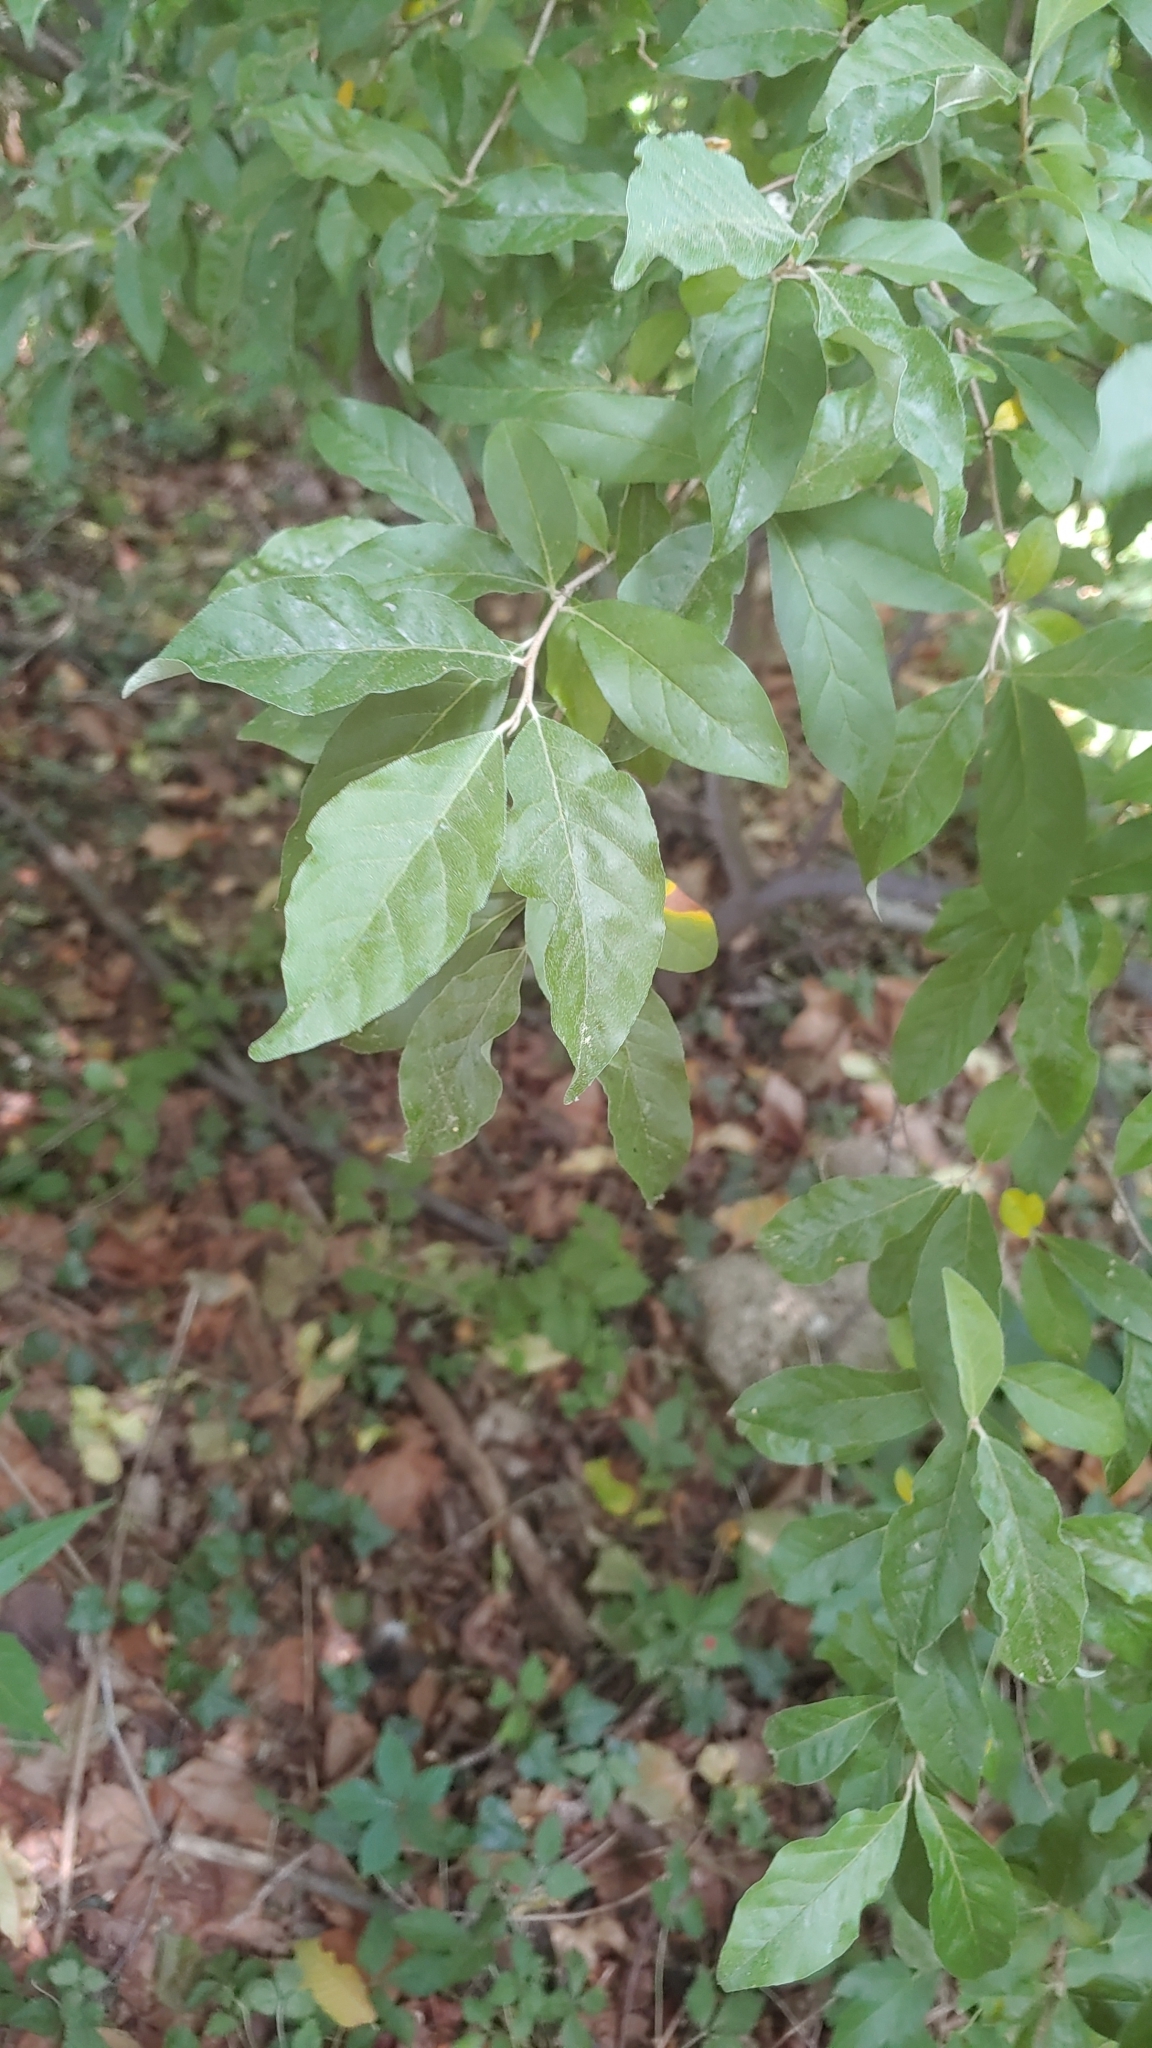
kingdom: Plantae
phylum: Tracheophyta
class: Magnoliopsida
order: Rosales
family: Elaeagnaceae
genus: Elaeagnus
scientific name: Elaeagnus umbellata
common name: Autumn olive
